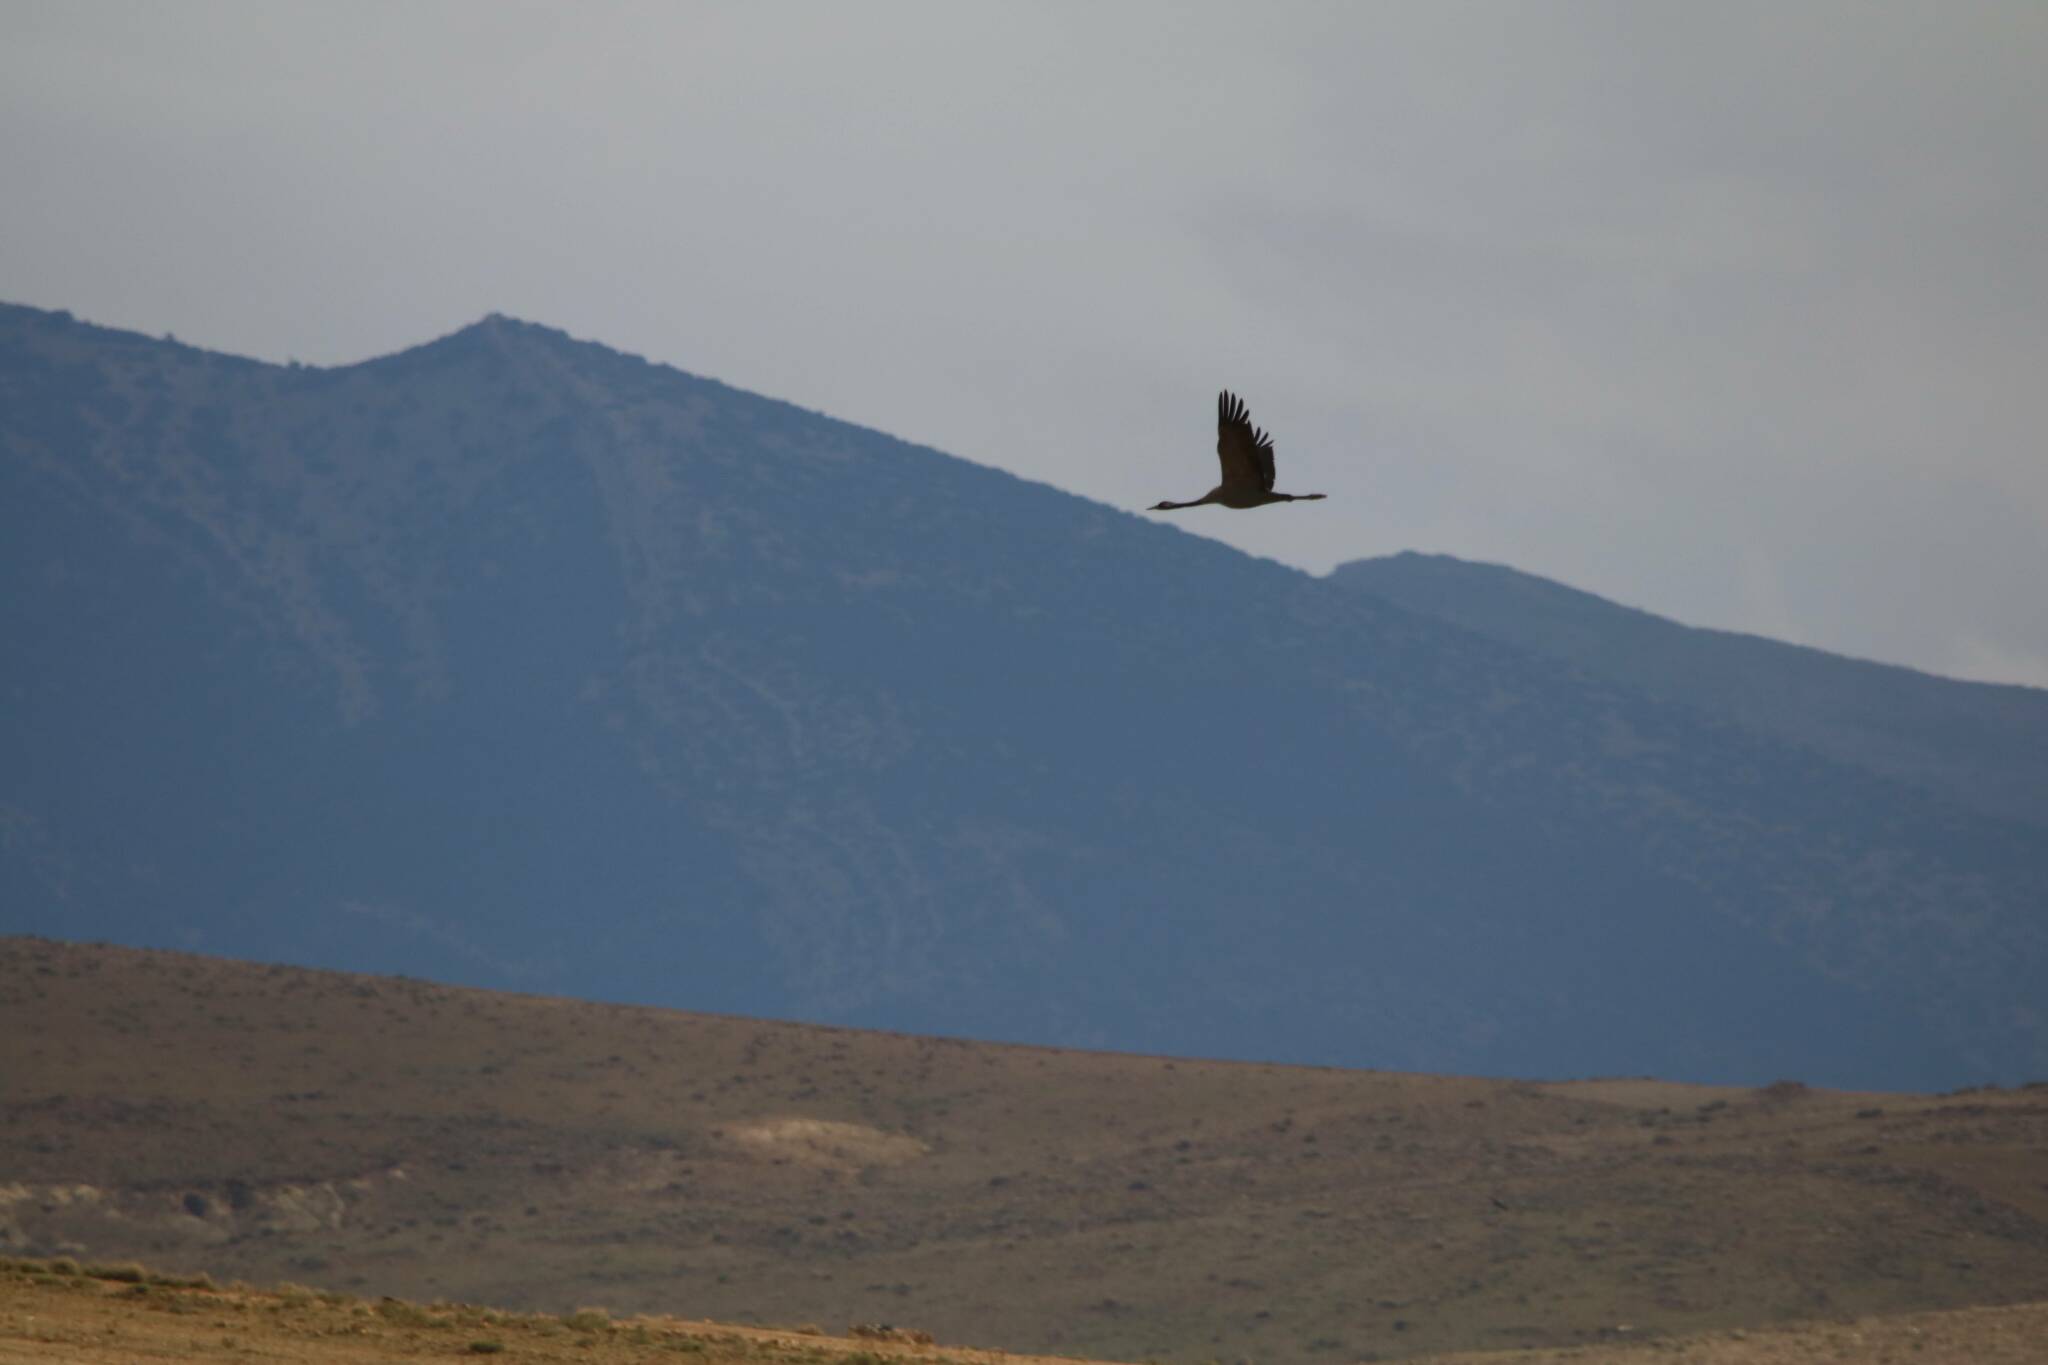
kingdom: Animalia
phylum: Chordata
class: Aves
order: Gruiformes
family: Gruidae
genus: Grus
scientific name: Grus grus
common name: Common crane
